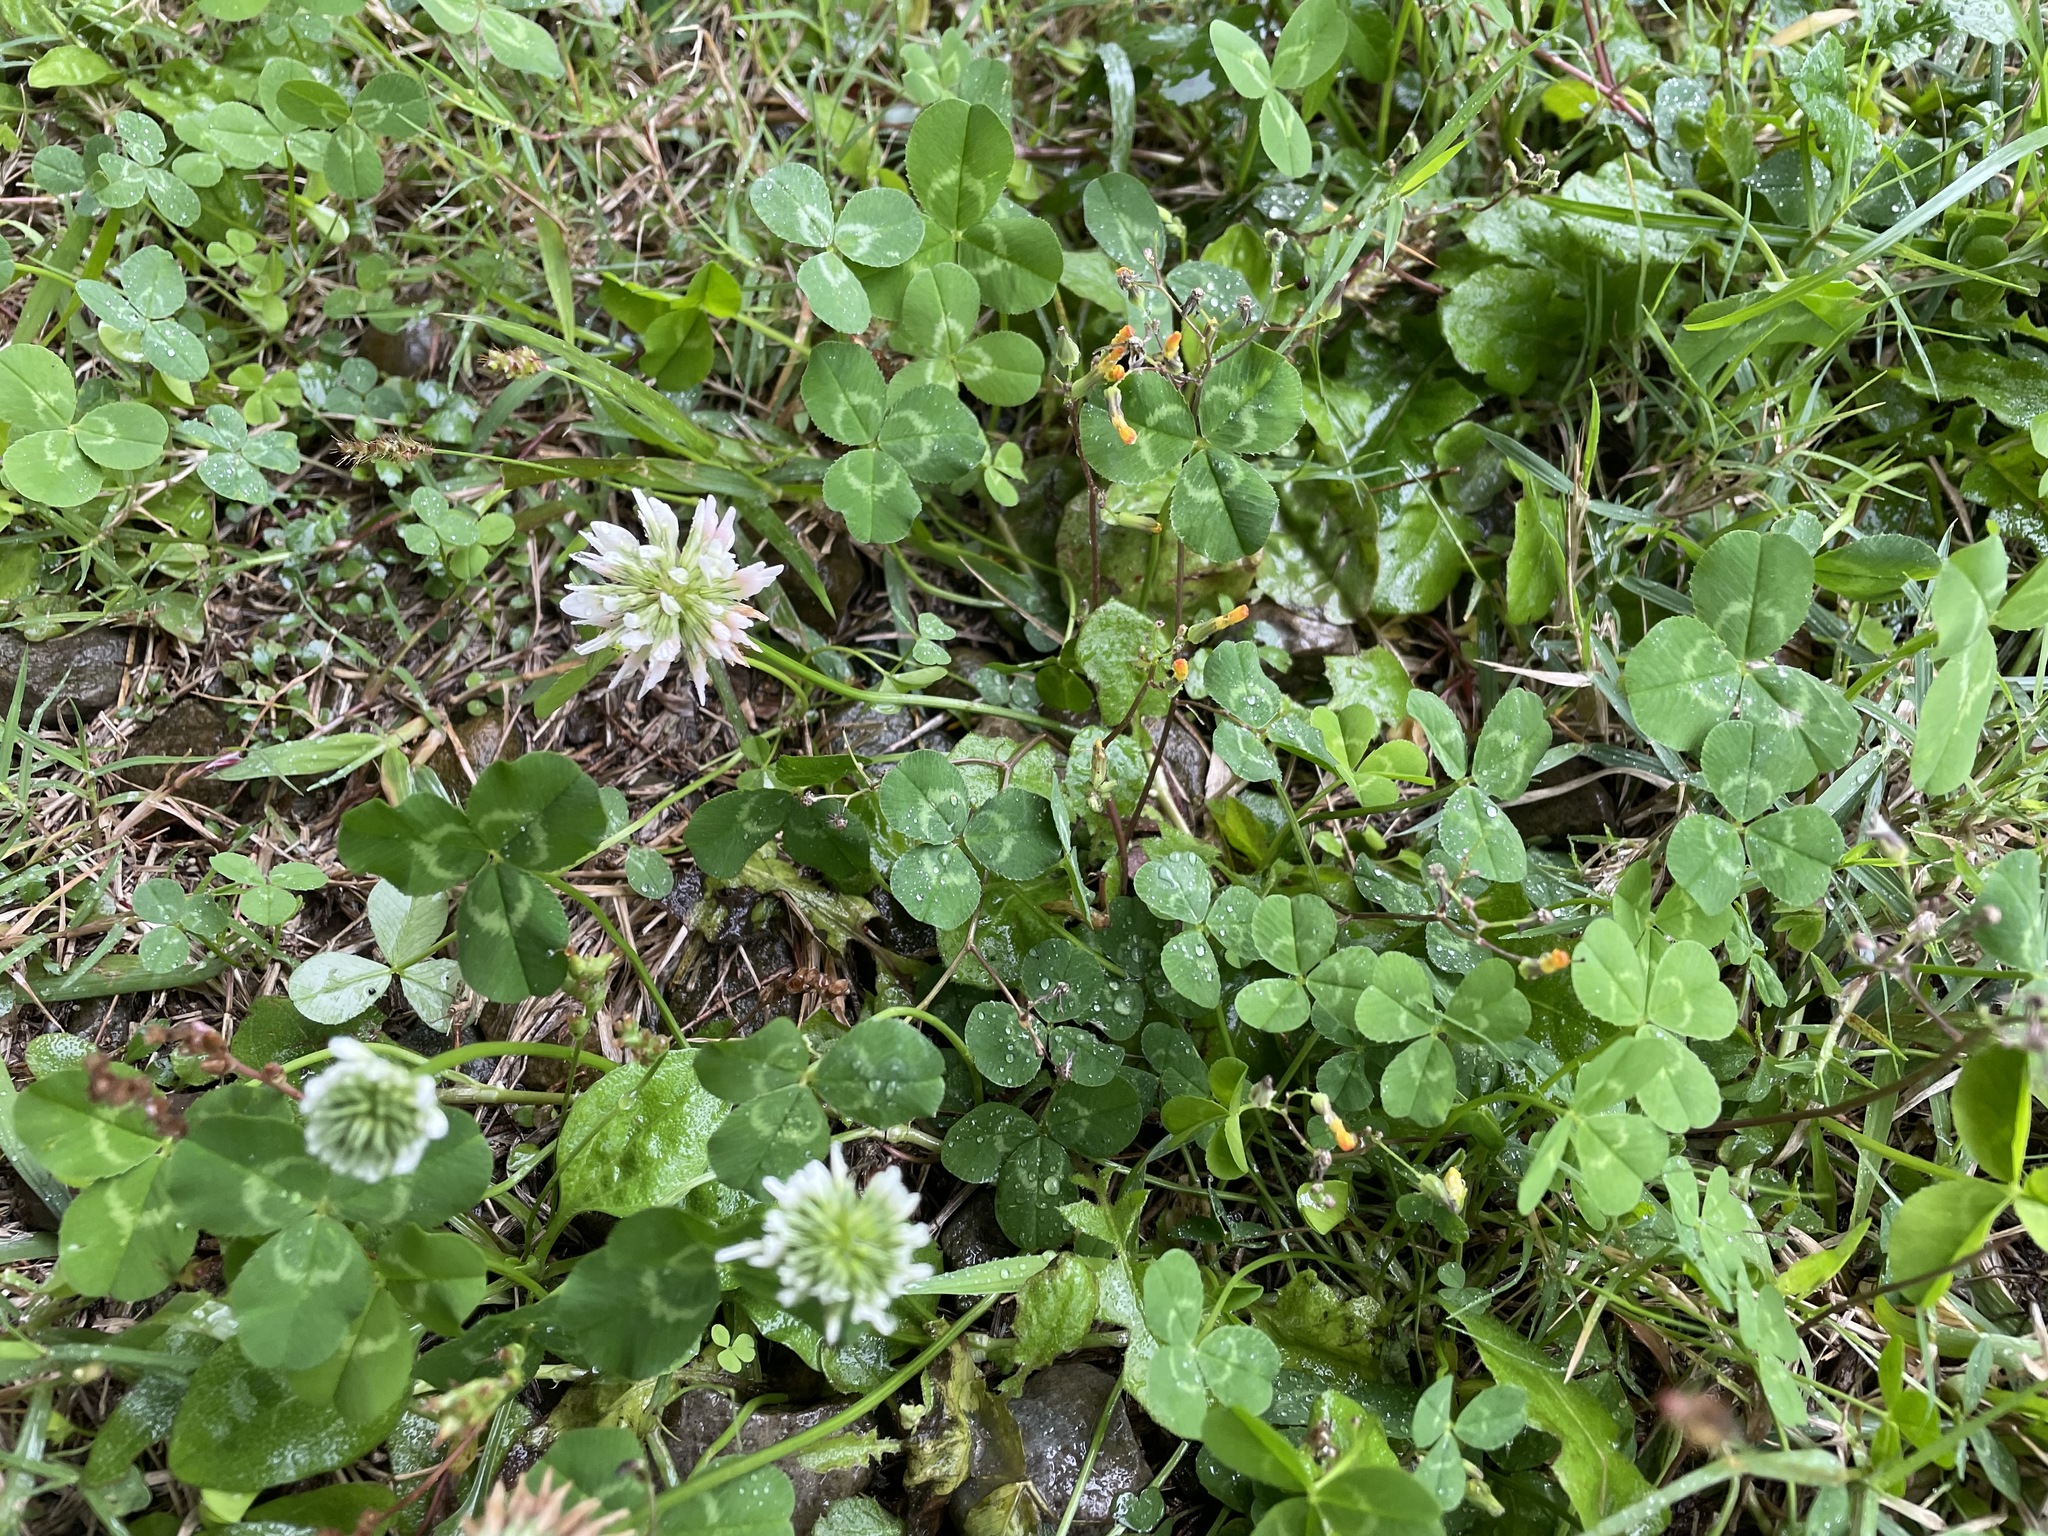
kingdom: Plantae
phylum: Tracheophyta
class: Magnoliopsida
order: Fabales
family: Fabaceae
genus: Trifolium
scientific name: Trifolium repens
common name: White clover
